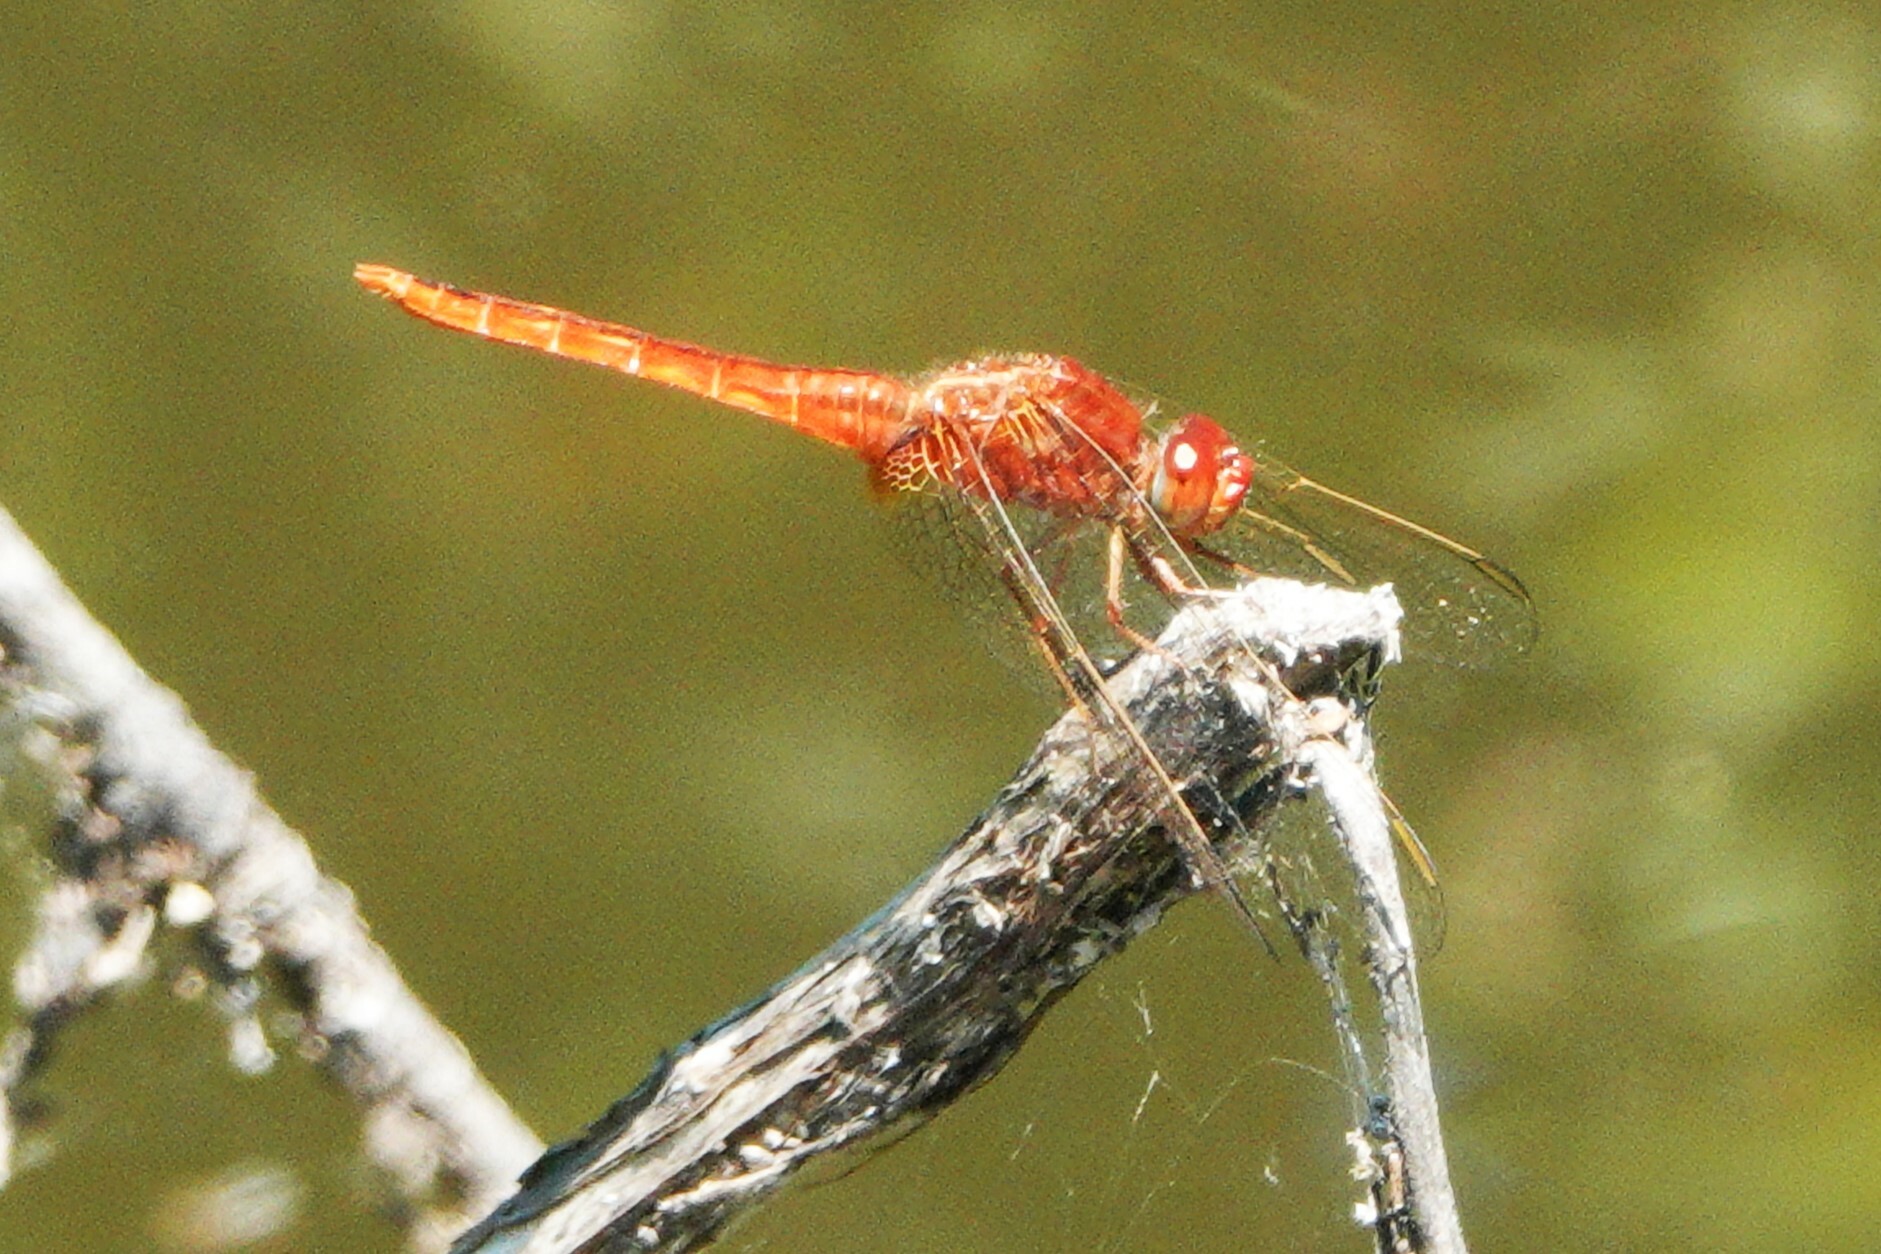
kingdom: Animalia
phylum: Arthropoda
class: Insecta
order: Odonata
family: Libellulidae
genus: Crocothemis
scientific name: Crocothemis servilia
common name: Scarlet skimmer
